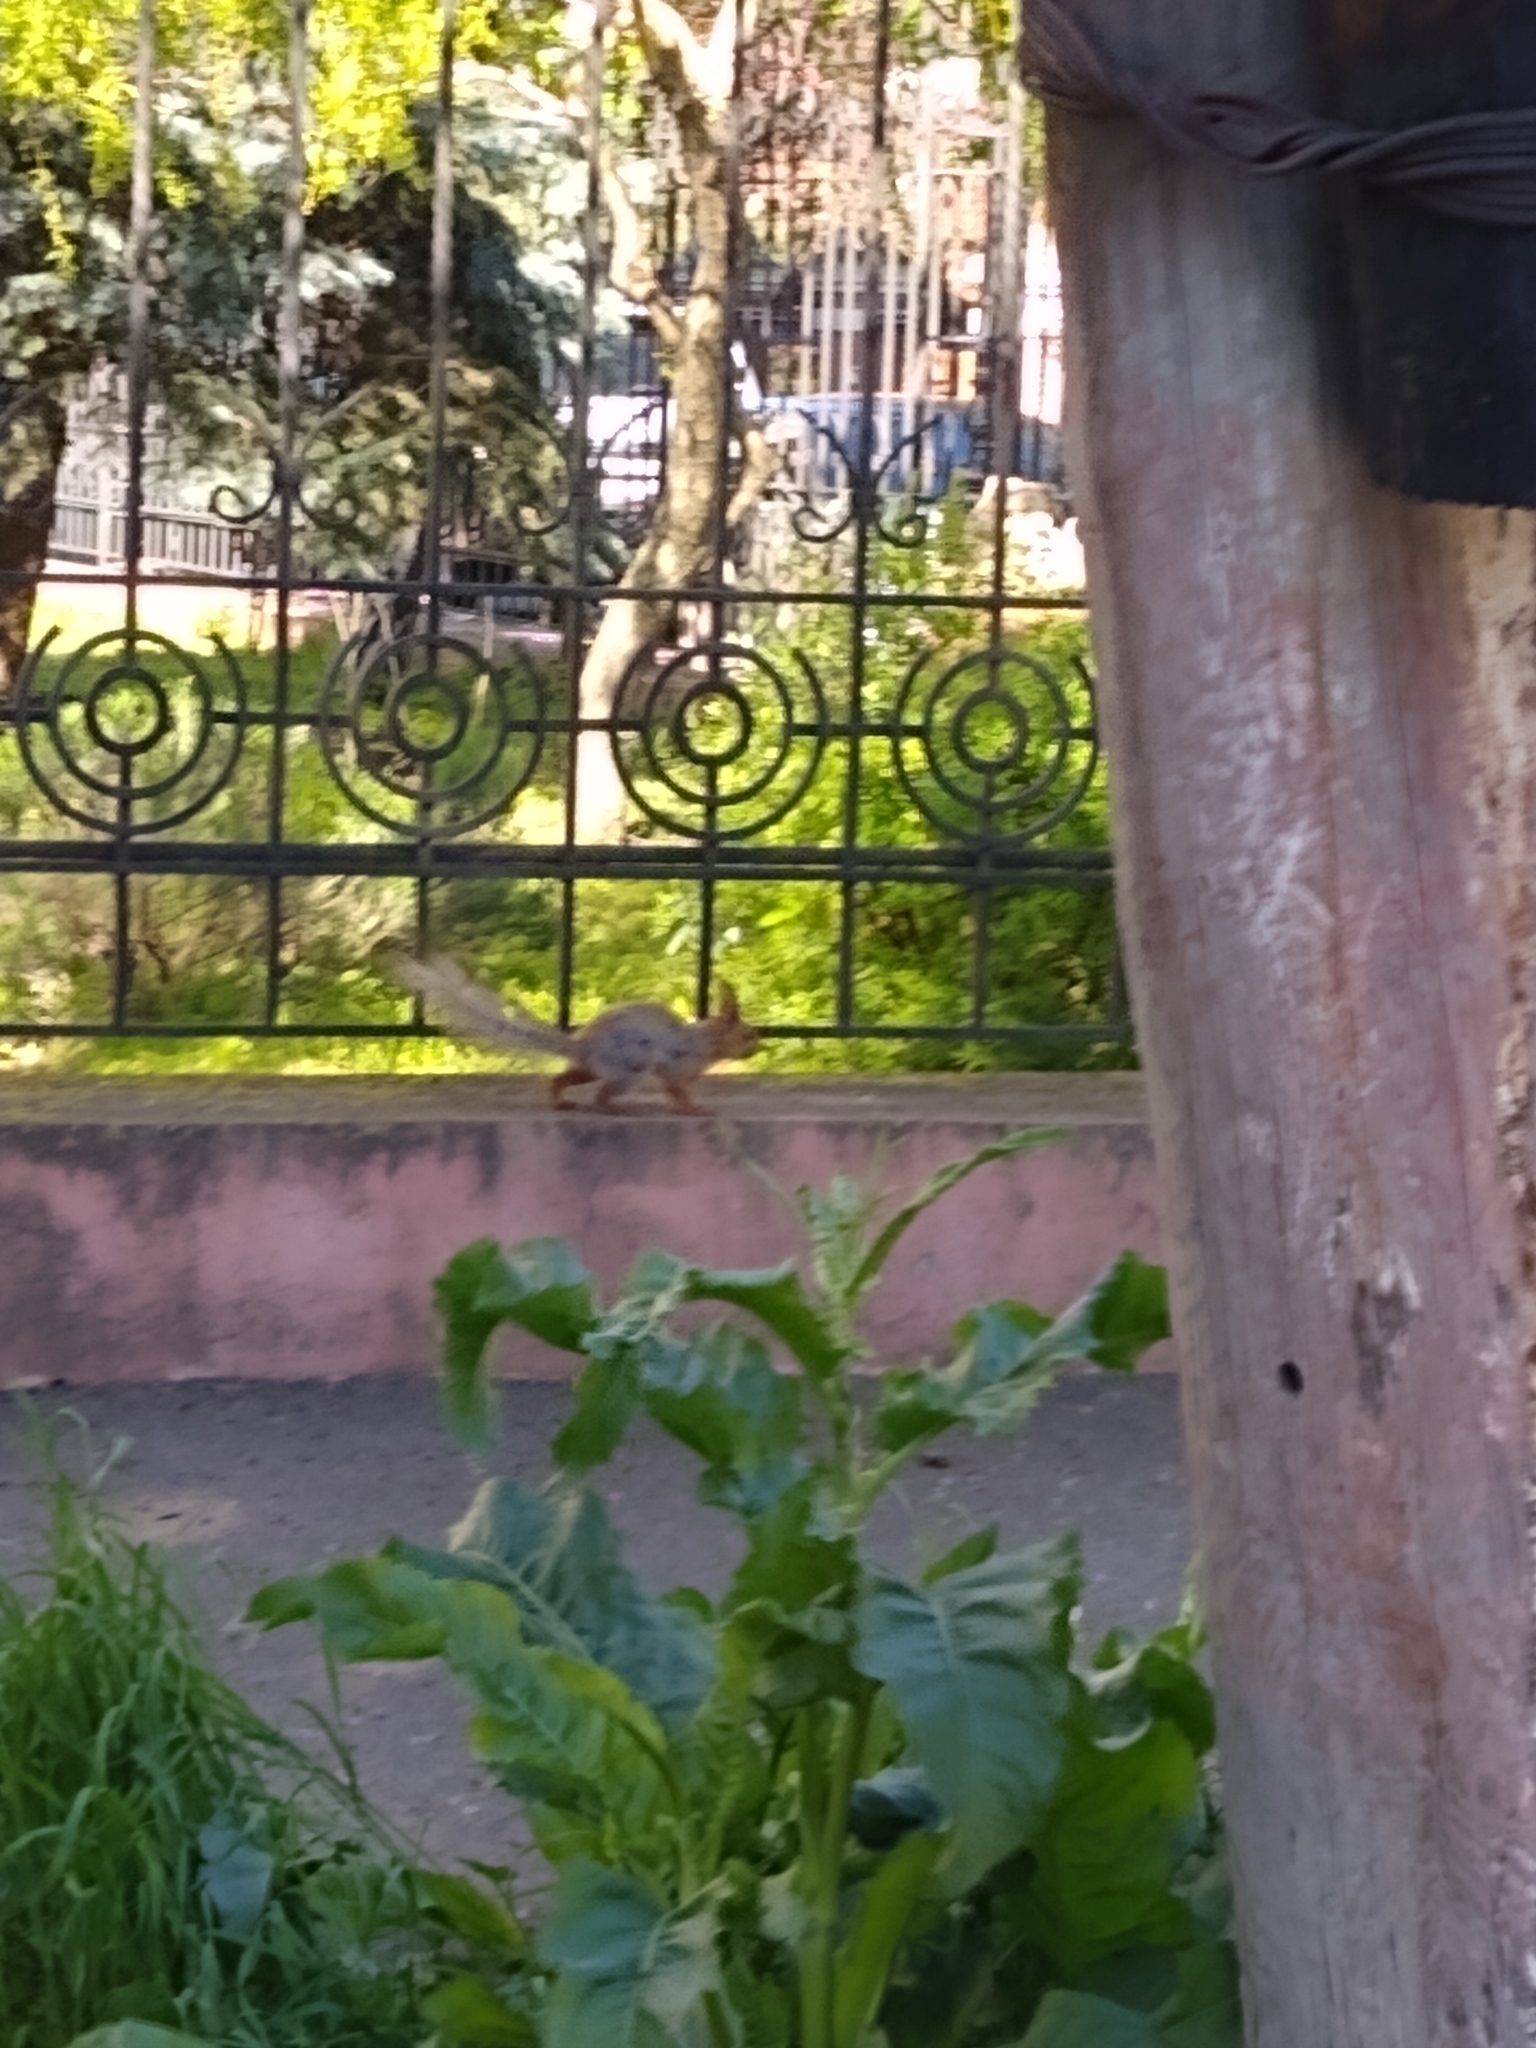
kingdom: Animalia
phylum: Chordata
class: Mammalia
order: Rodentia
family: Sciuridae
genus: Sciurus
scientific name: Sciurus vulgaris
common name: Eurasian red squirrel
